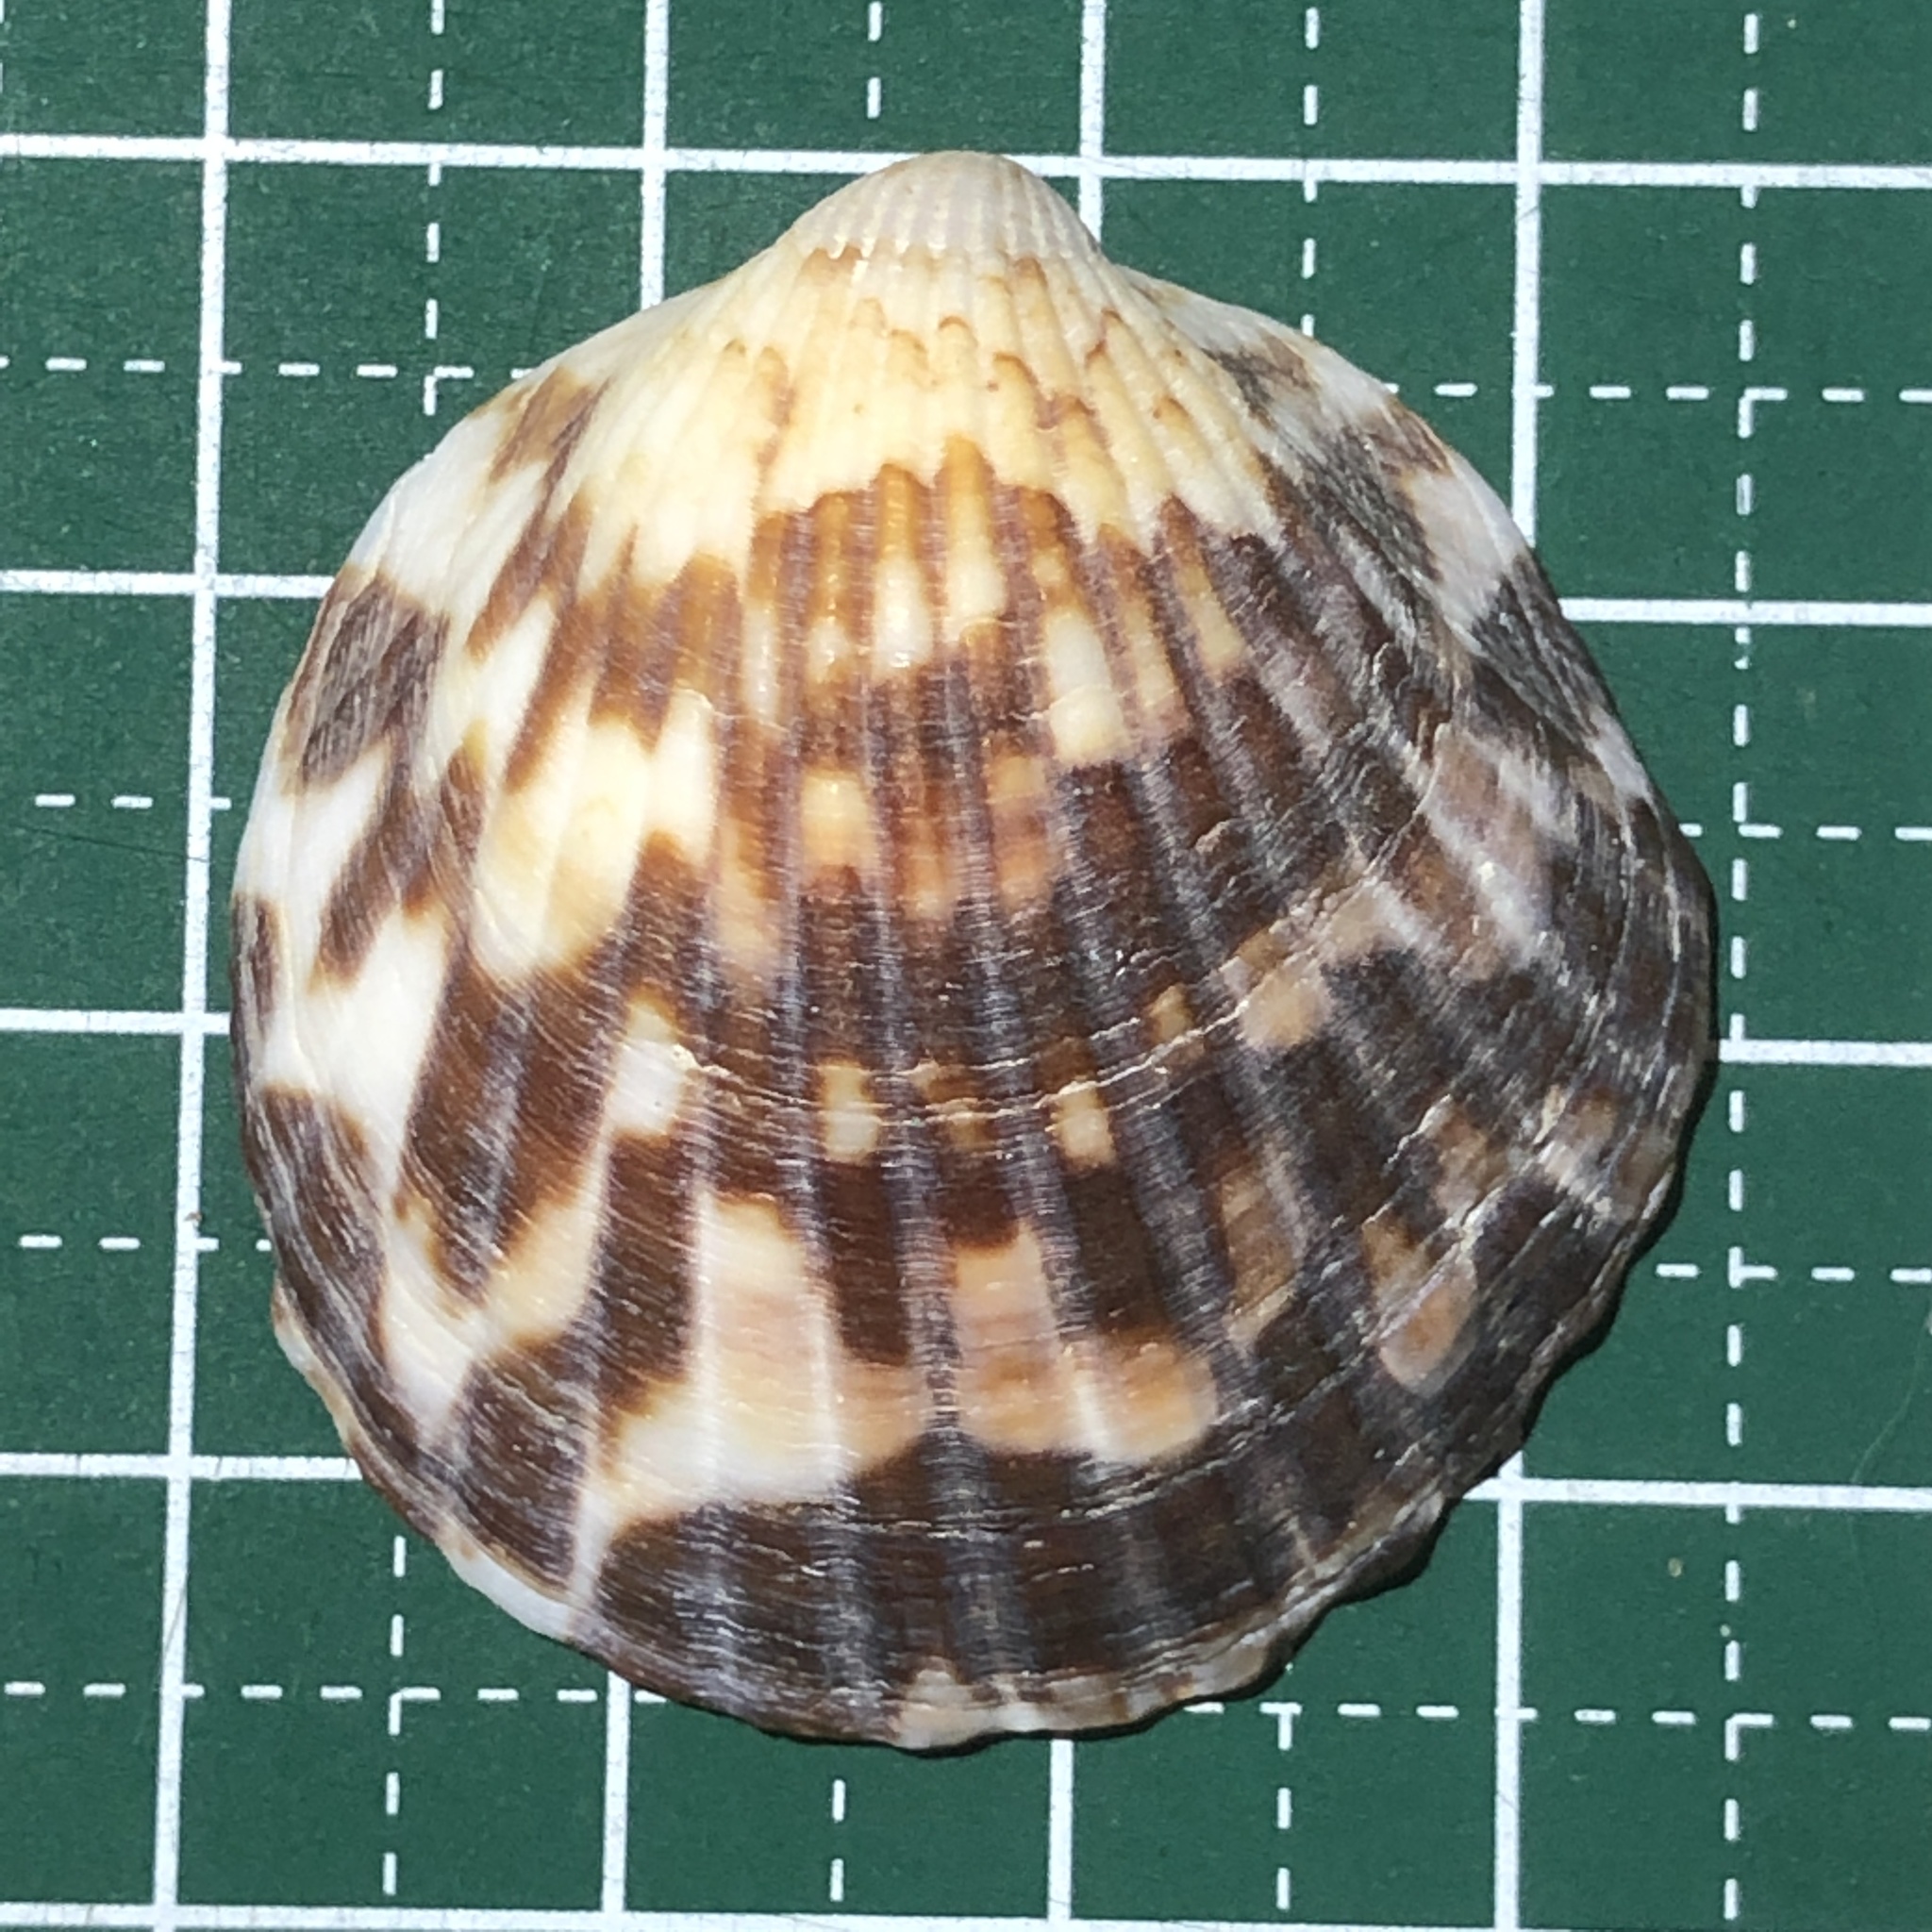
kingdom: Animalia
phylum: Mollusca
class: Bivalvia
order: Arcida
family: Glycymerididae
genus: Tucetona
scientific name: Tucetona auriflua
